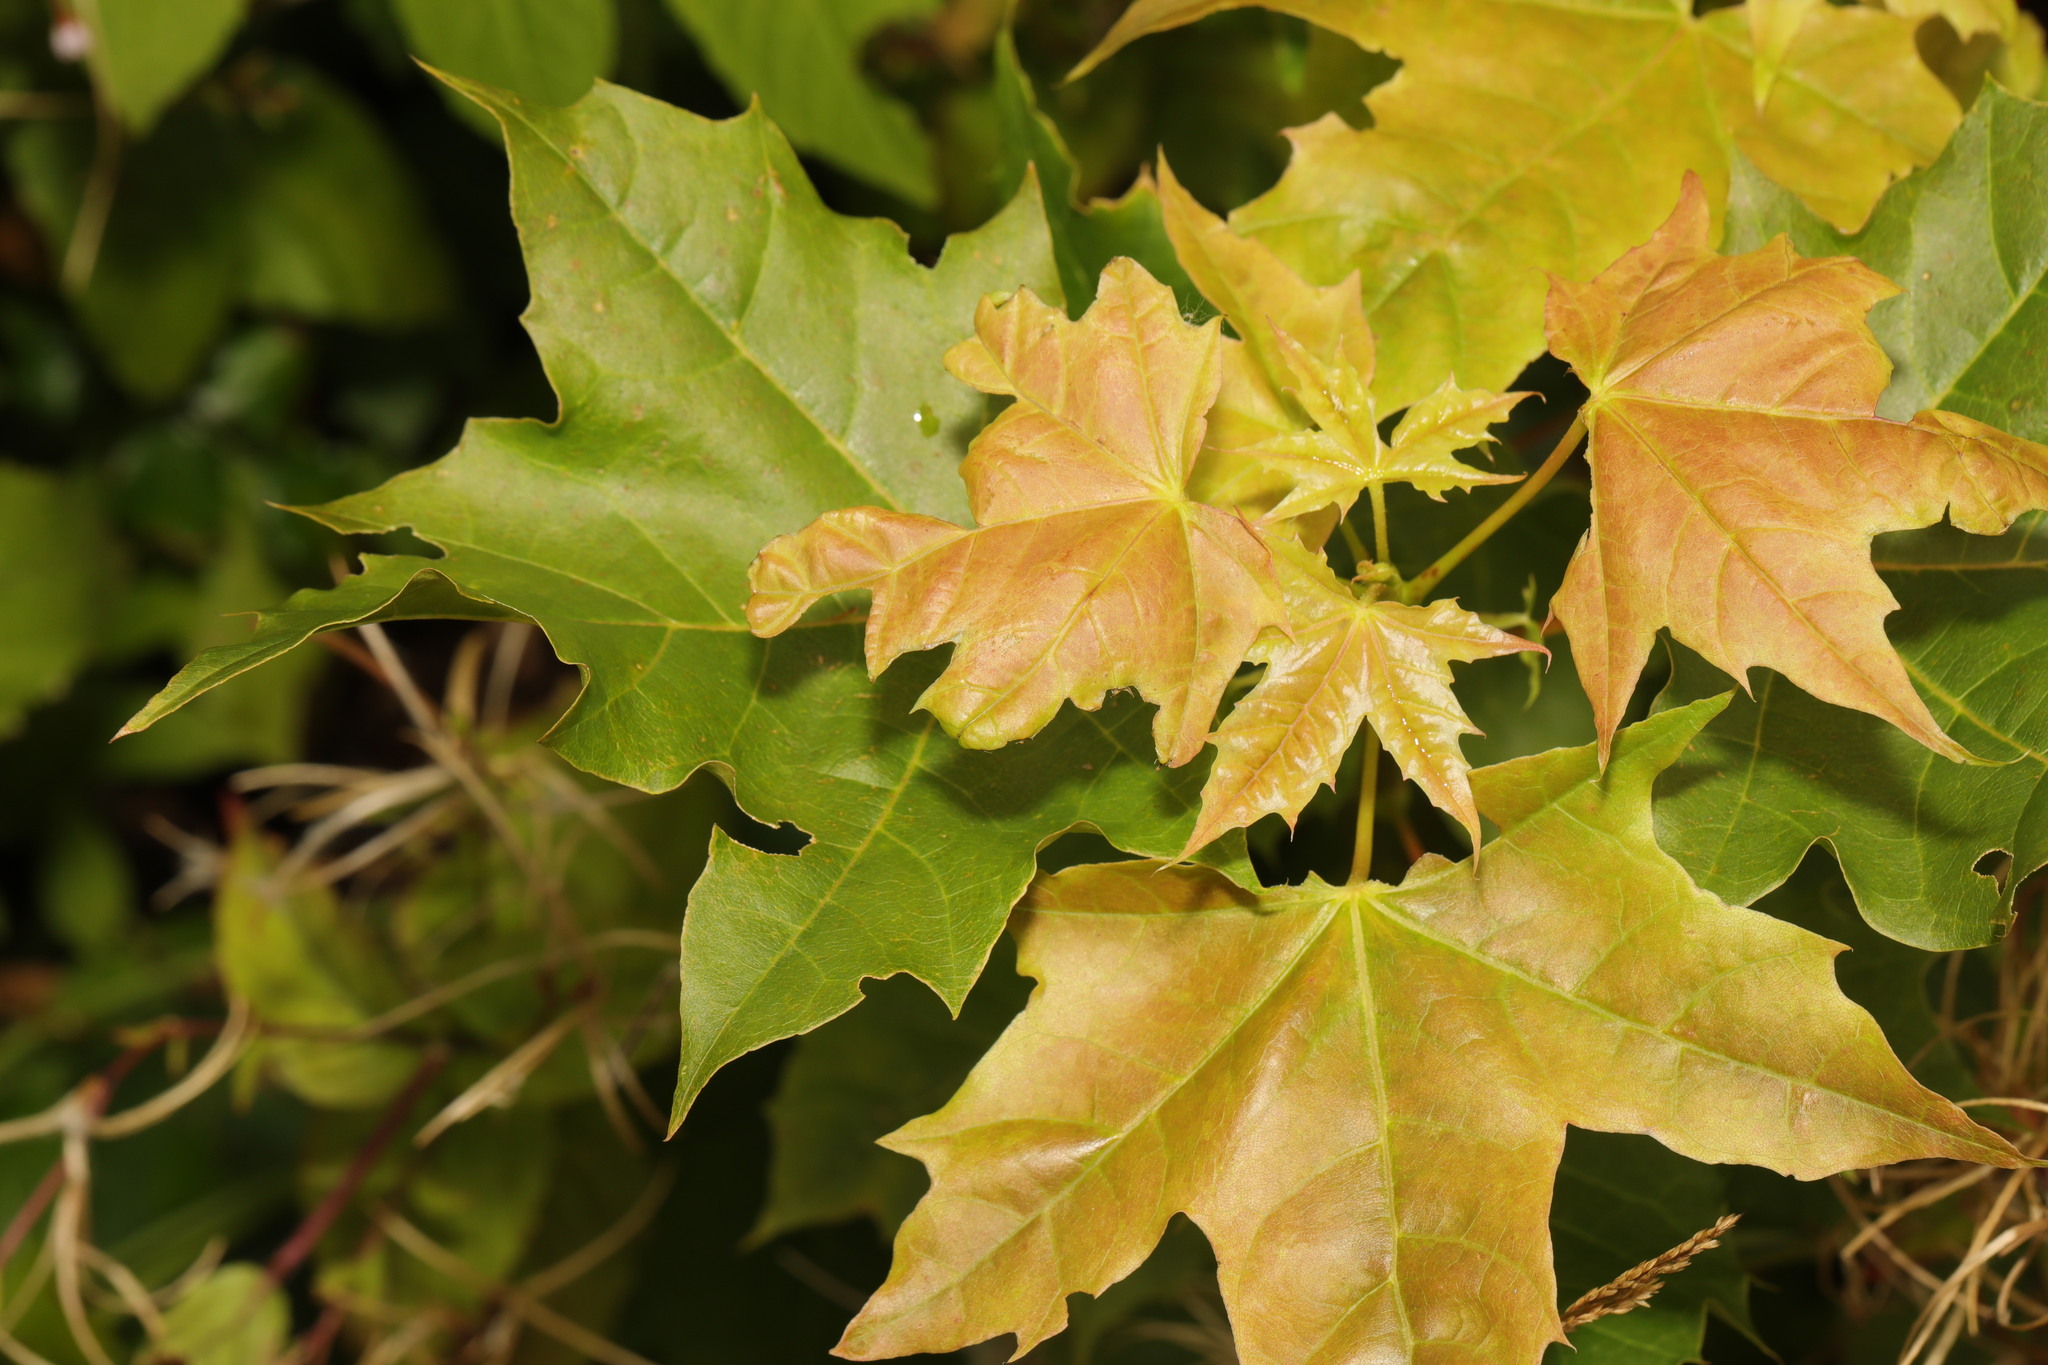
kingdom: Plantae
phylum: Tracheophyta
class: Magnoliopsida
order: Sapindales
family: Sapindaceae
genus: Acer
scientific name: Acer platanoides
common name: Norway maple
